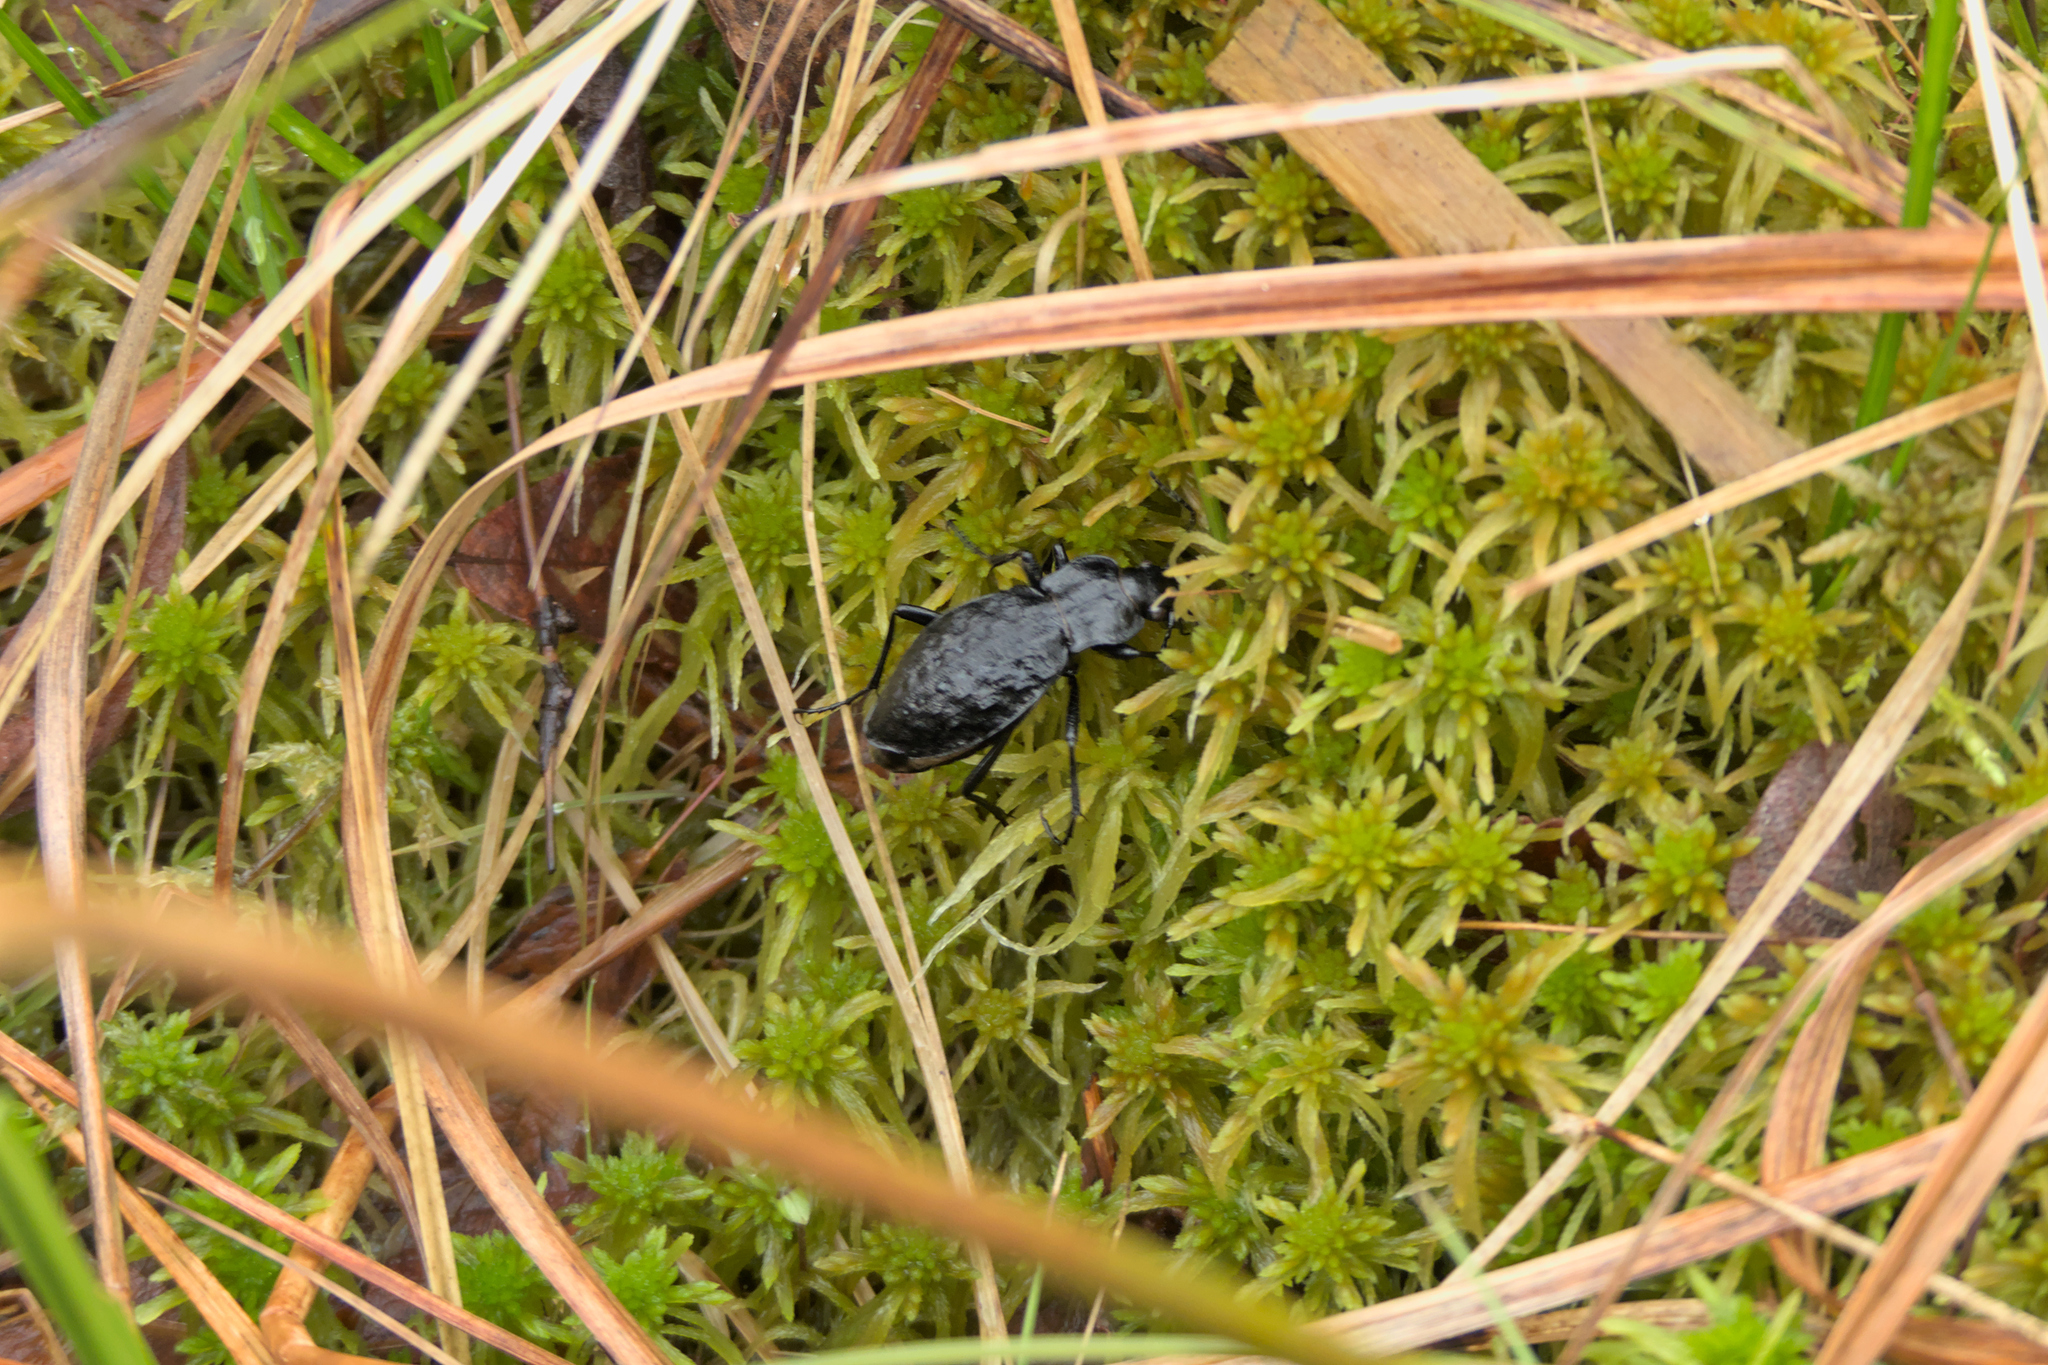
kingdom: Animalia
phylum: Arthropoda
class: Insecta
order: Coleoptera
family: Carabidae
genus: Carabus
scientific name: Carabus variolosus
